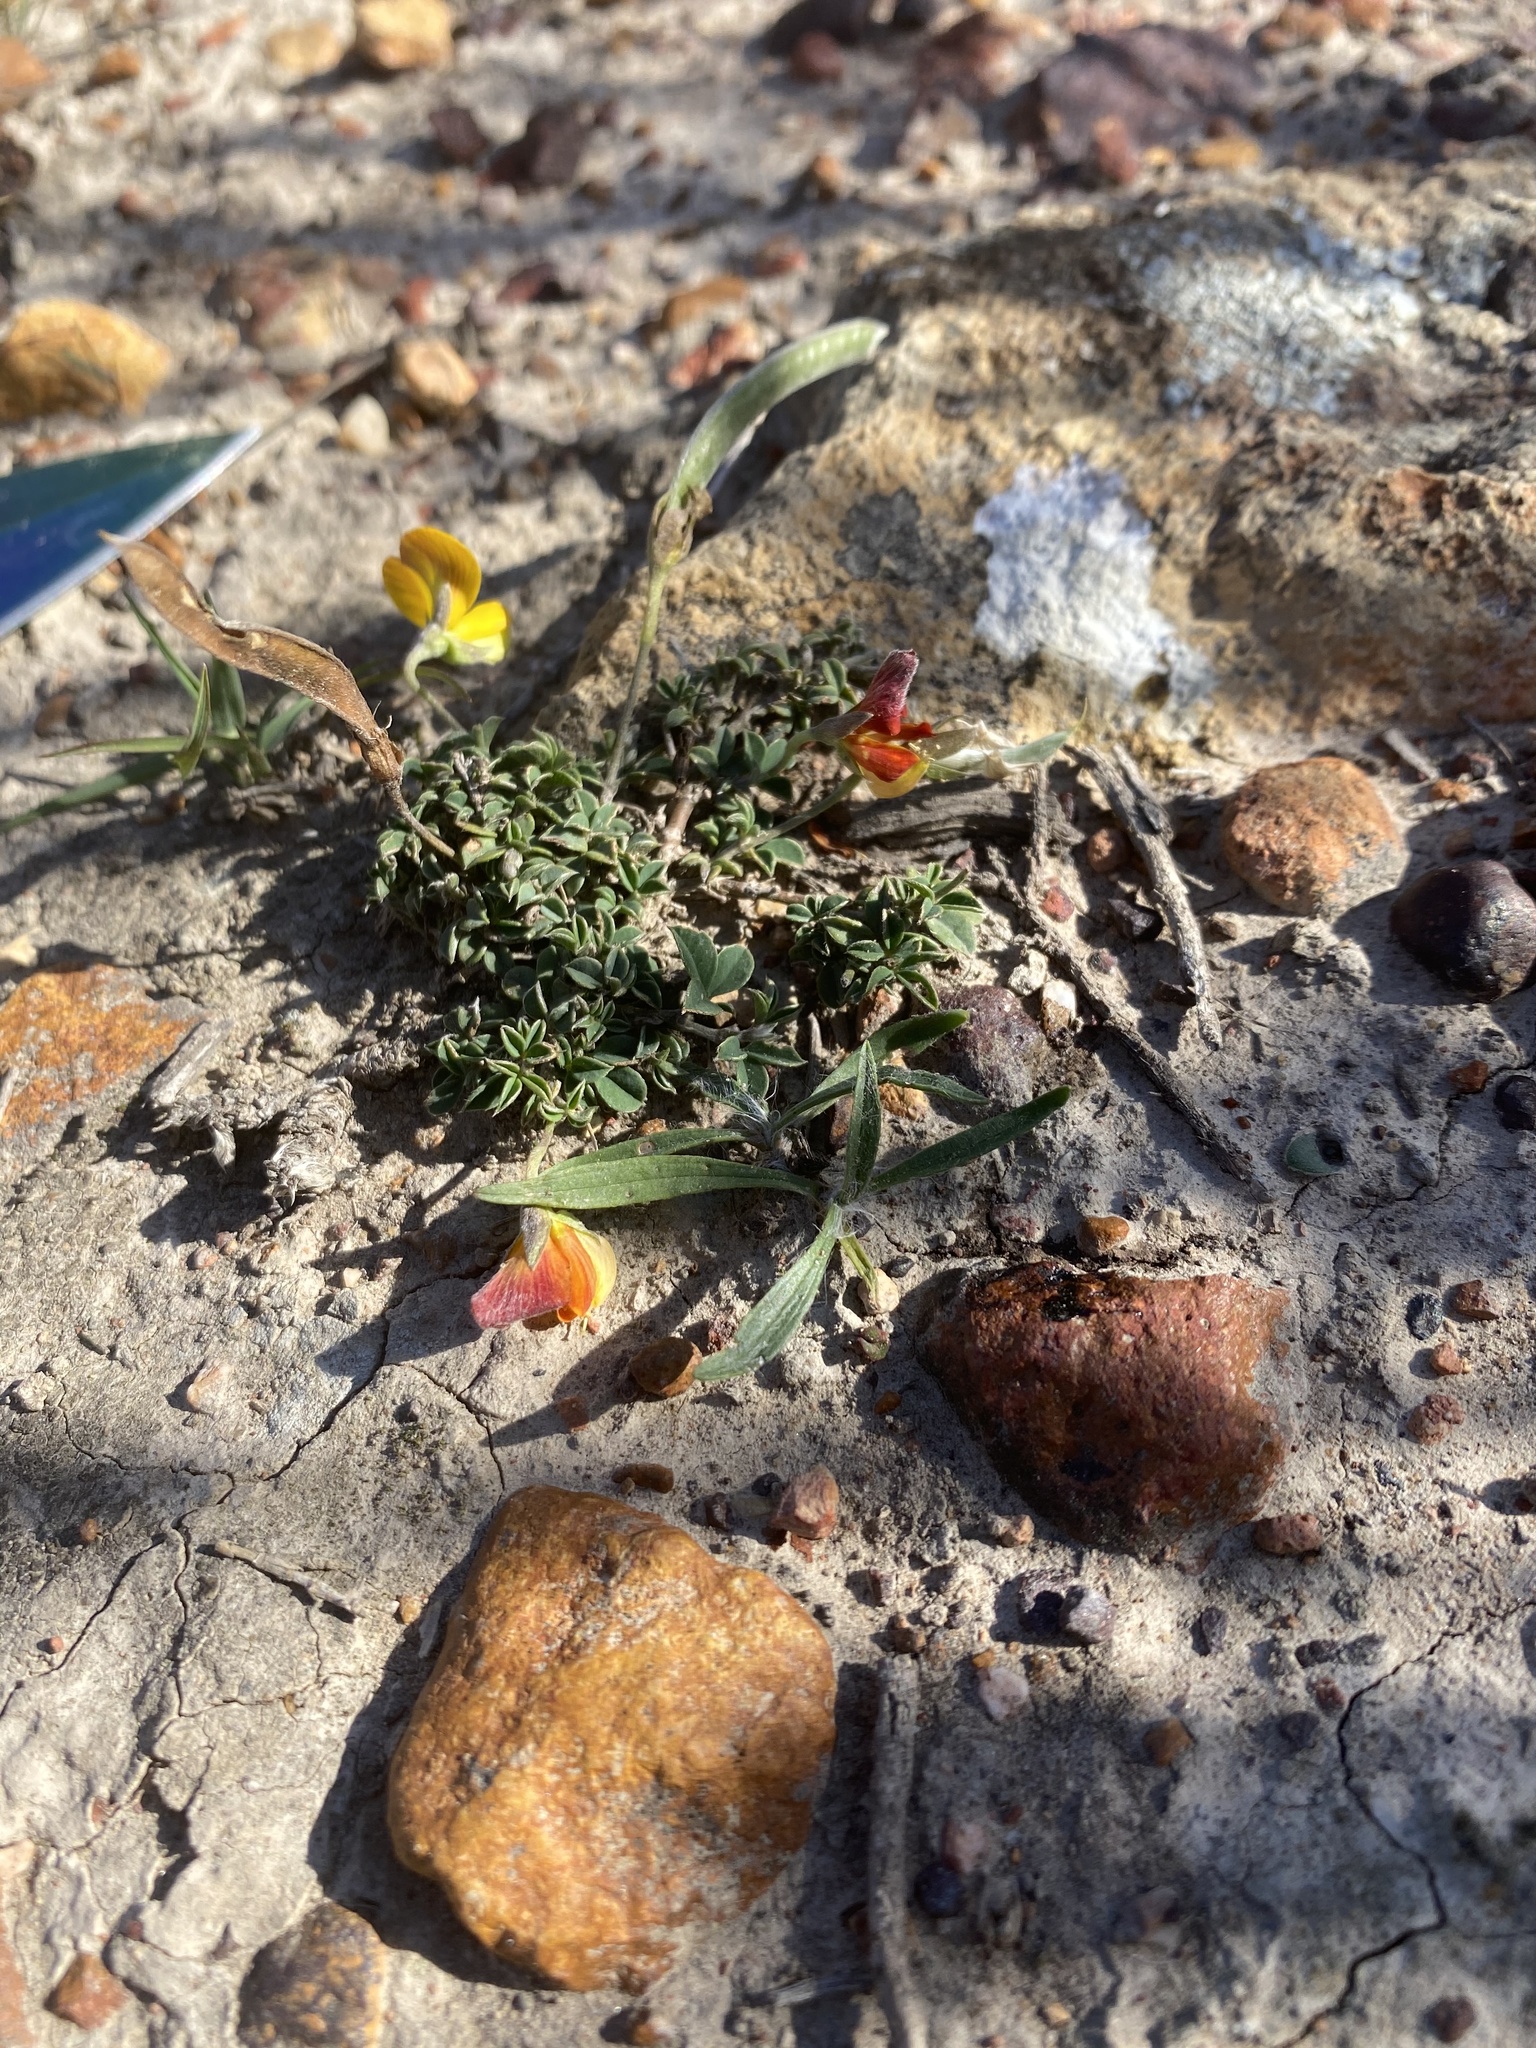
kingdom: Plantae
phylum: Tracheophyta
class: Magnoliopsida
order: Fabales
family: Fabaceae
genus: Argyrolobium
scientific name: Argyrolobium molle
